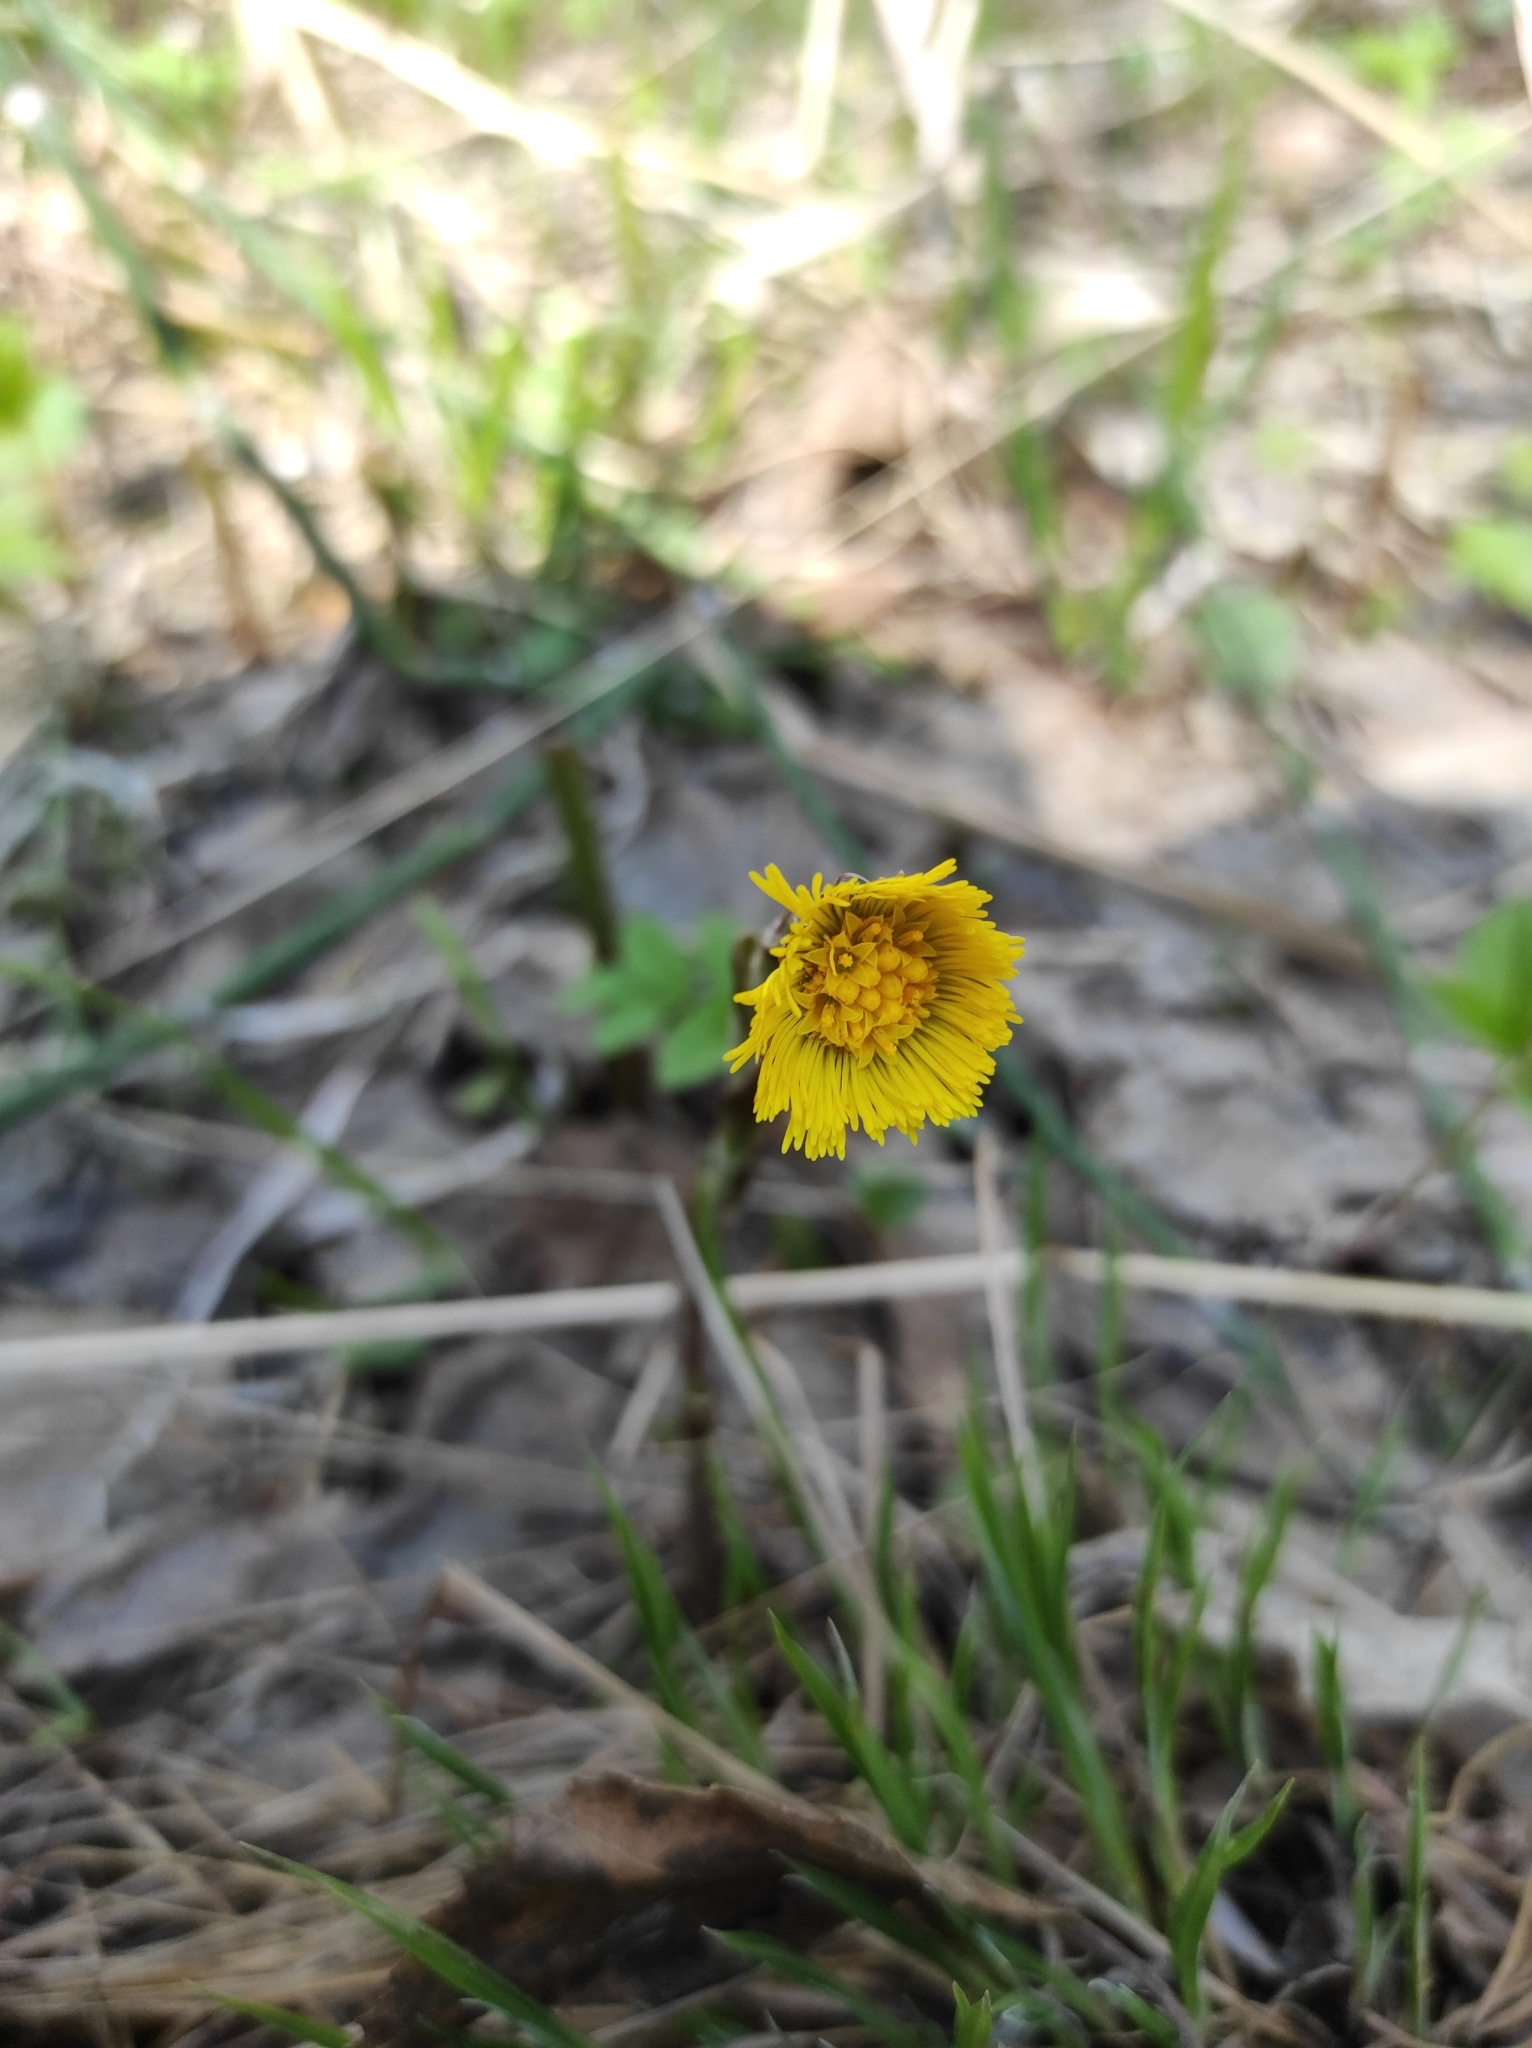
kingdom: Plantae
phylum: Tracheophyta
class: Magnoliopsida
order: Asterales
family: Asteraceae
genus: Tussilago
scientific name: Tussilago farfara
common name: Coltsfoot
